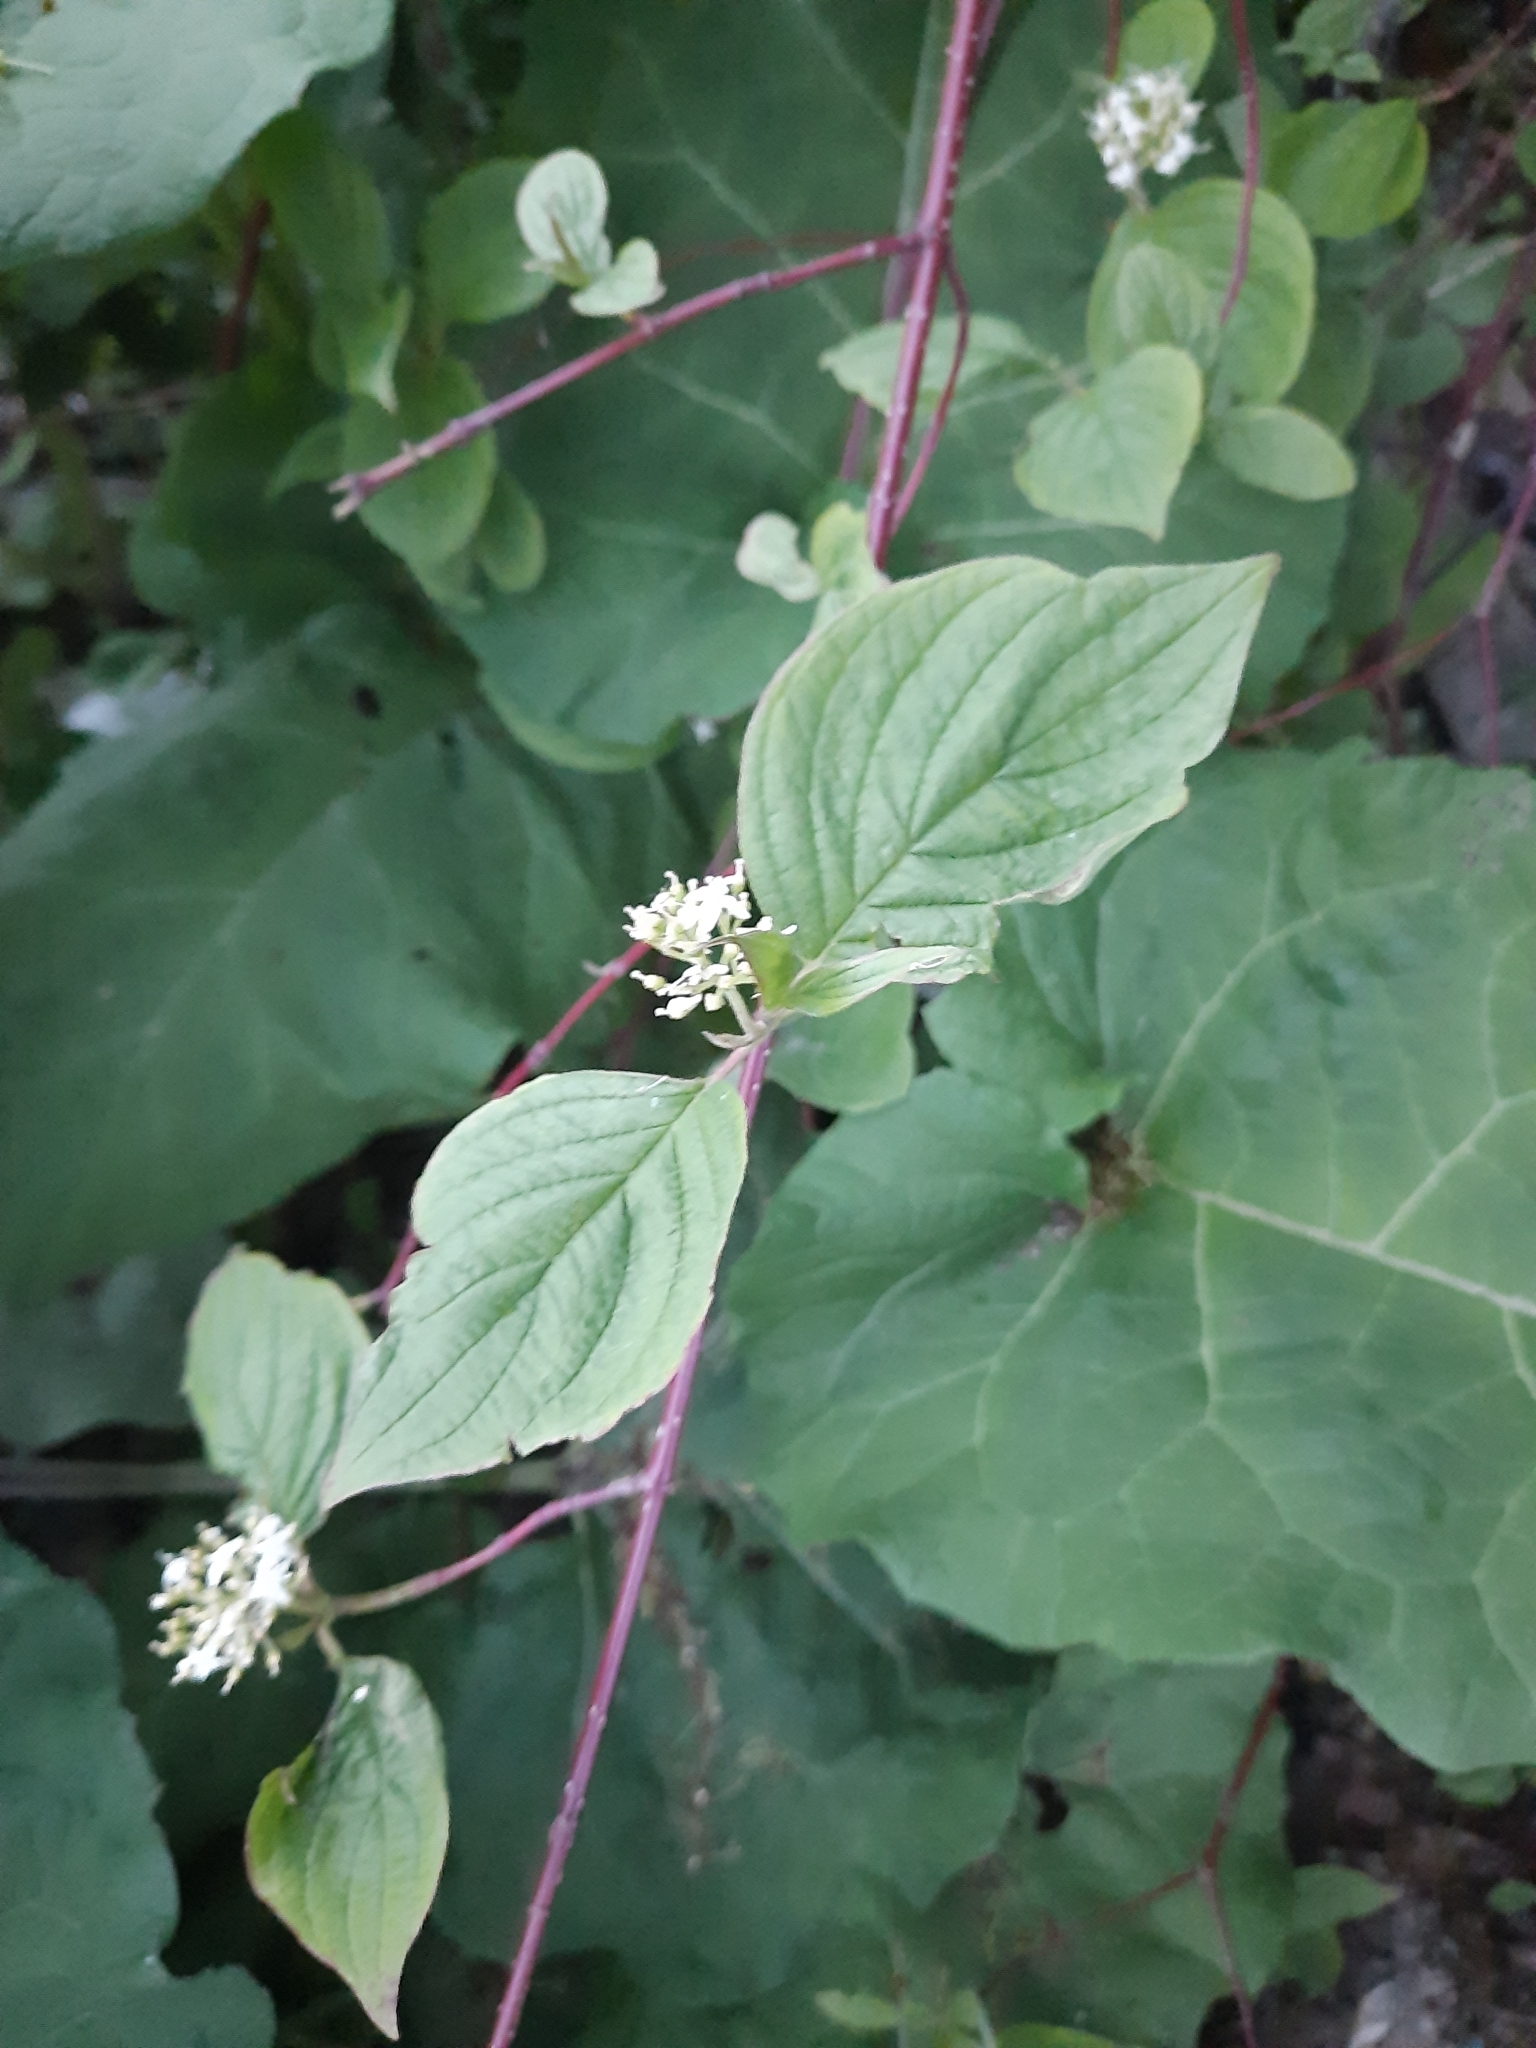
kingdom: Plantae
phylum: Tracheophyta
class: Magnoliopsida
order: Cornales
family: Cornaceae
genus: Cornus
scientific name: Cornus alba
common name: White dogwood
